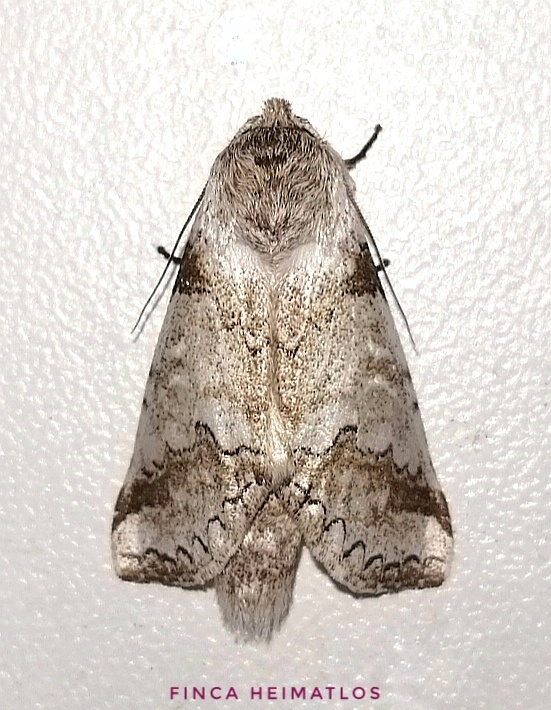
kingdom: Animalia
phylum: Arthropoda
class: Insecta
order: Lepidoptera
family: Notodontidae
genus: Sericochroa
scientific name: Sericochroa politia
